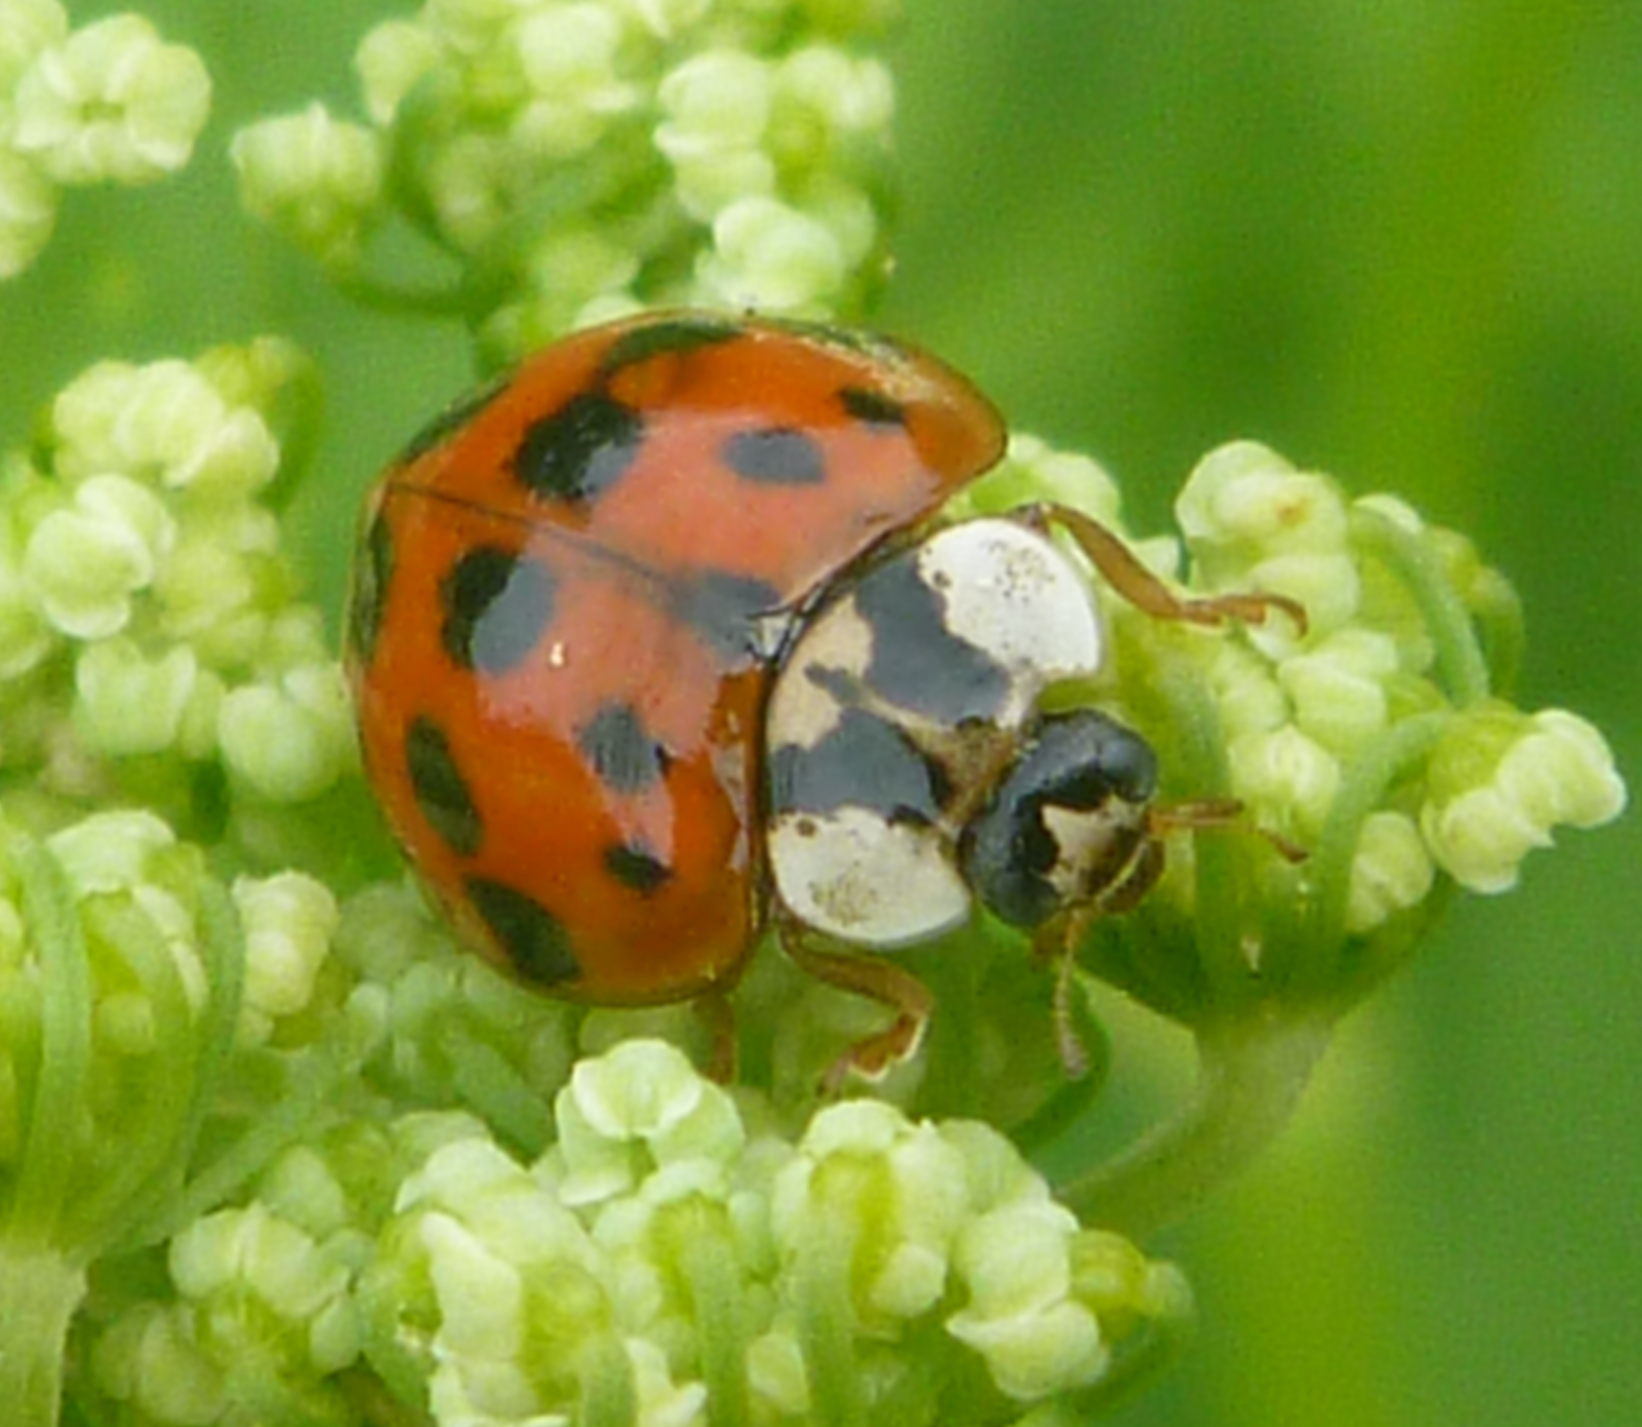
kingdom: Animalia
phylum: Arthropoda
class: Insecta
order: Coleoptera
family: Coccinellidae
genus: Harmonia
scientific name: Harmonia axyridis
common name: Harlequin ladybird
